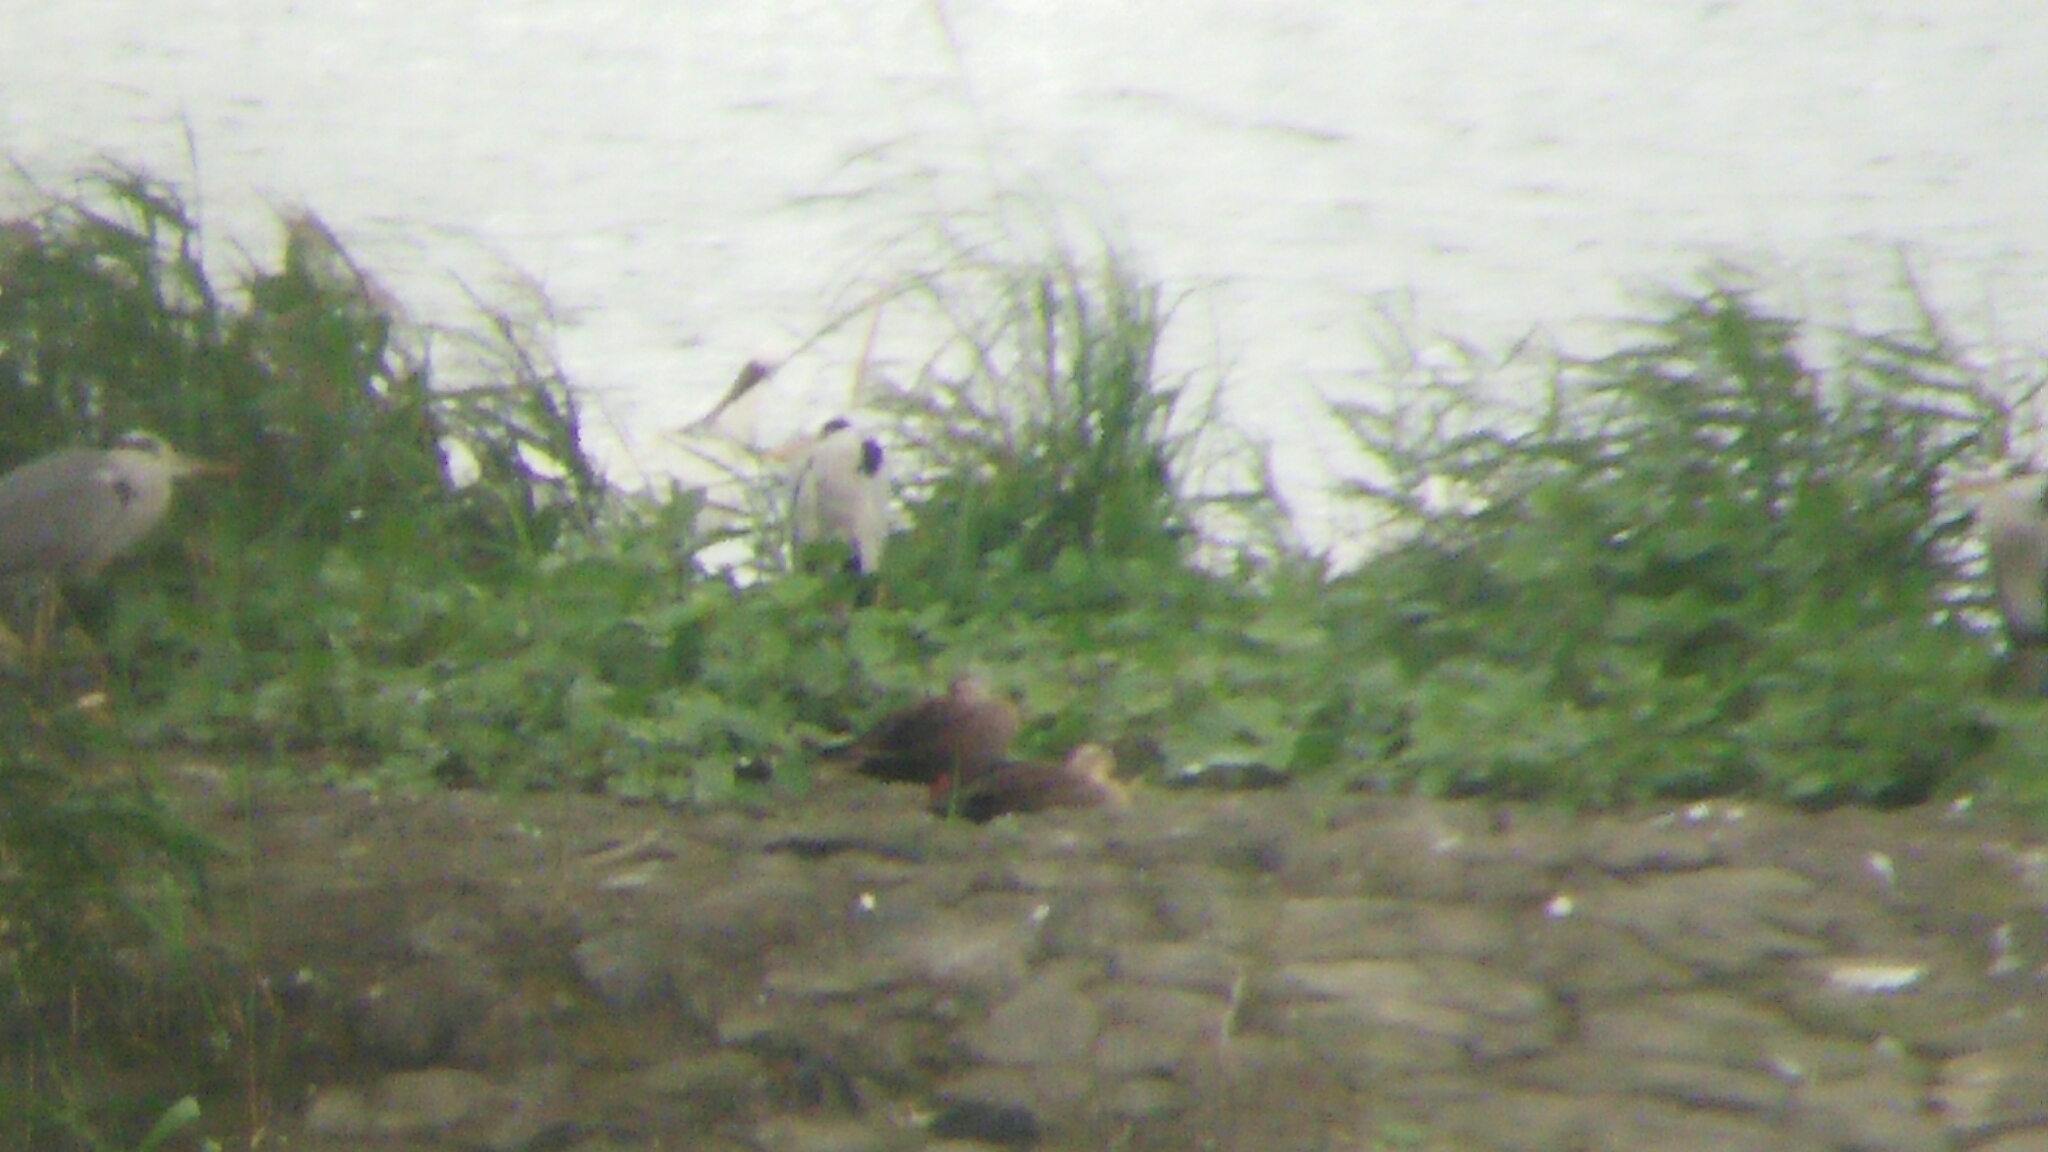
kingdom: Animalia
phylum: Chordata
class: Aves
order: Pelecaniformes
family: Threskiornithidae
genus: Platalea
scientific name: Platalea minor
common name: Black-faced spoonbill
